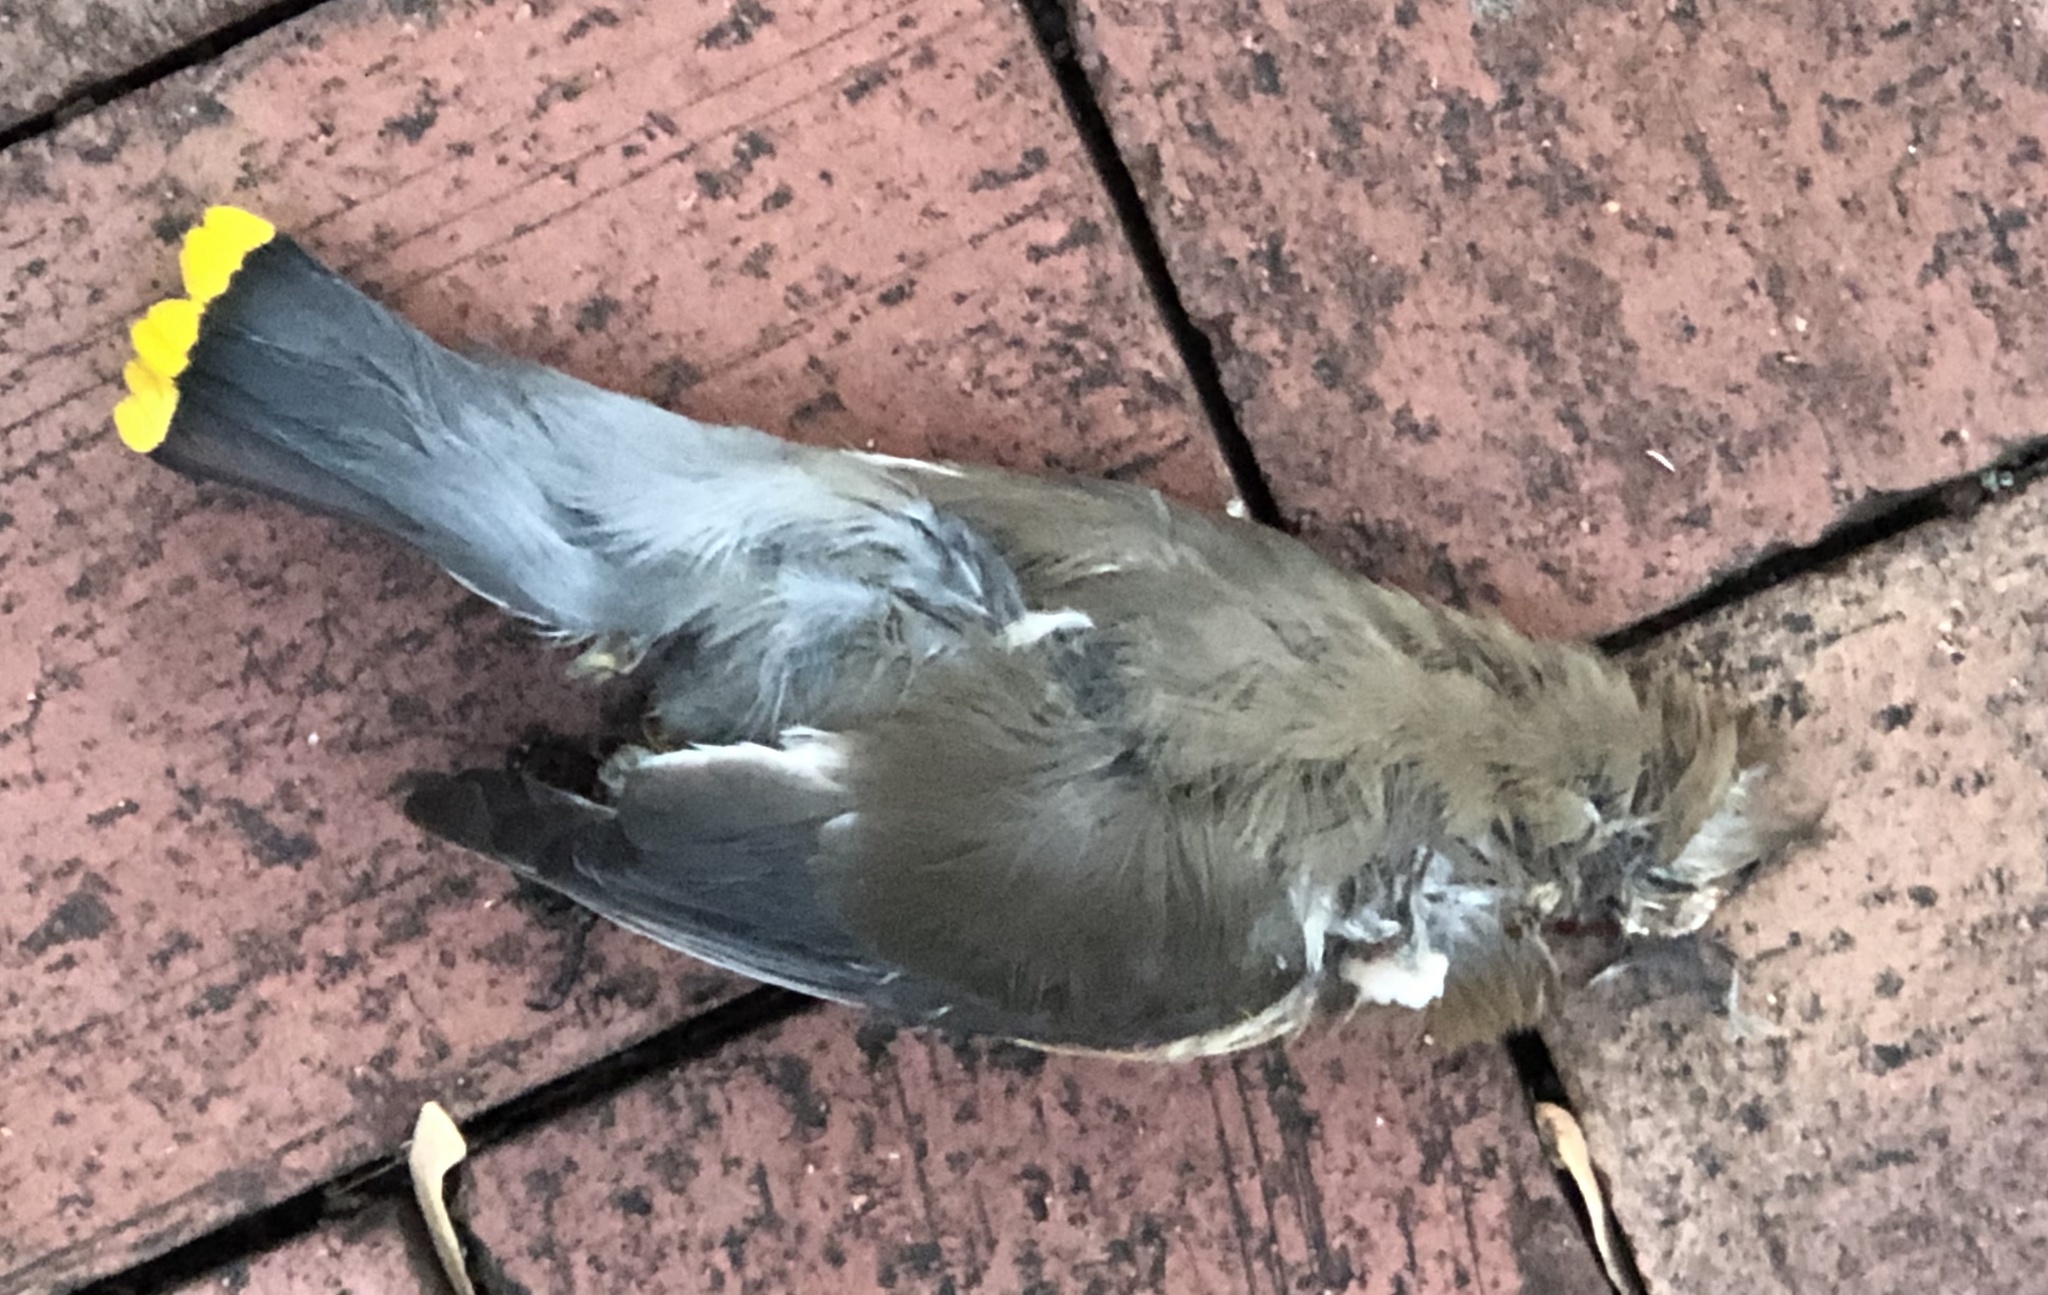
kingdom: Animalia
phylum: Chordata
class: Aves
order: Passeriformes
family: Bombycillidae
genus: Bombycilla
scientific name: Bombycilla cedrorum
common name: Cedar waxwing
